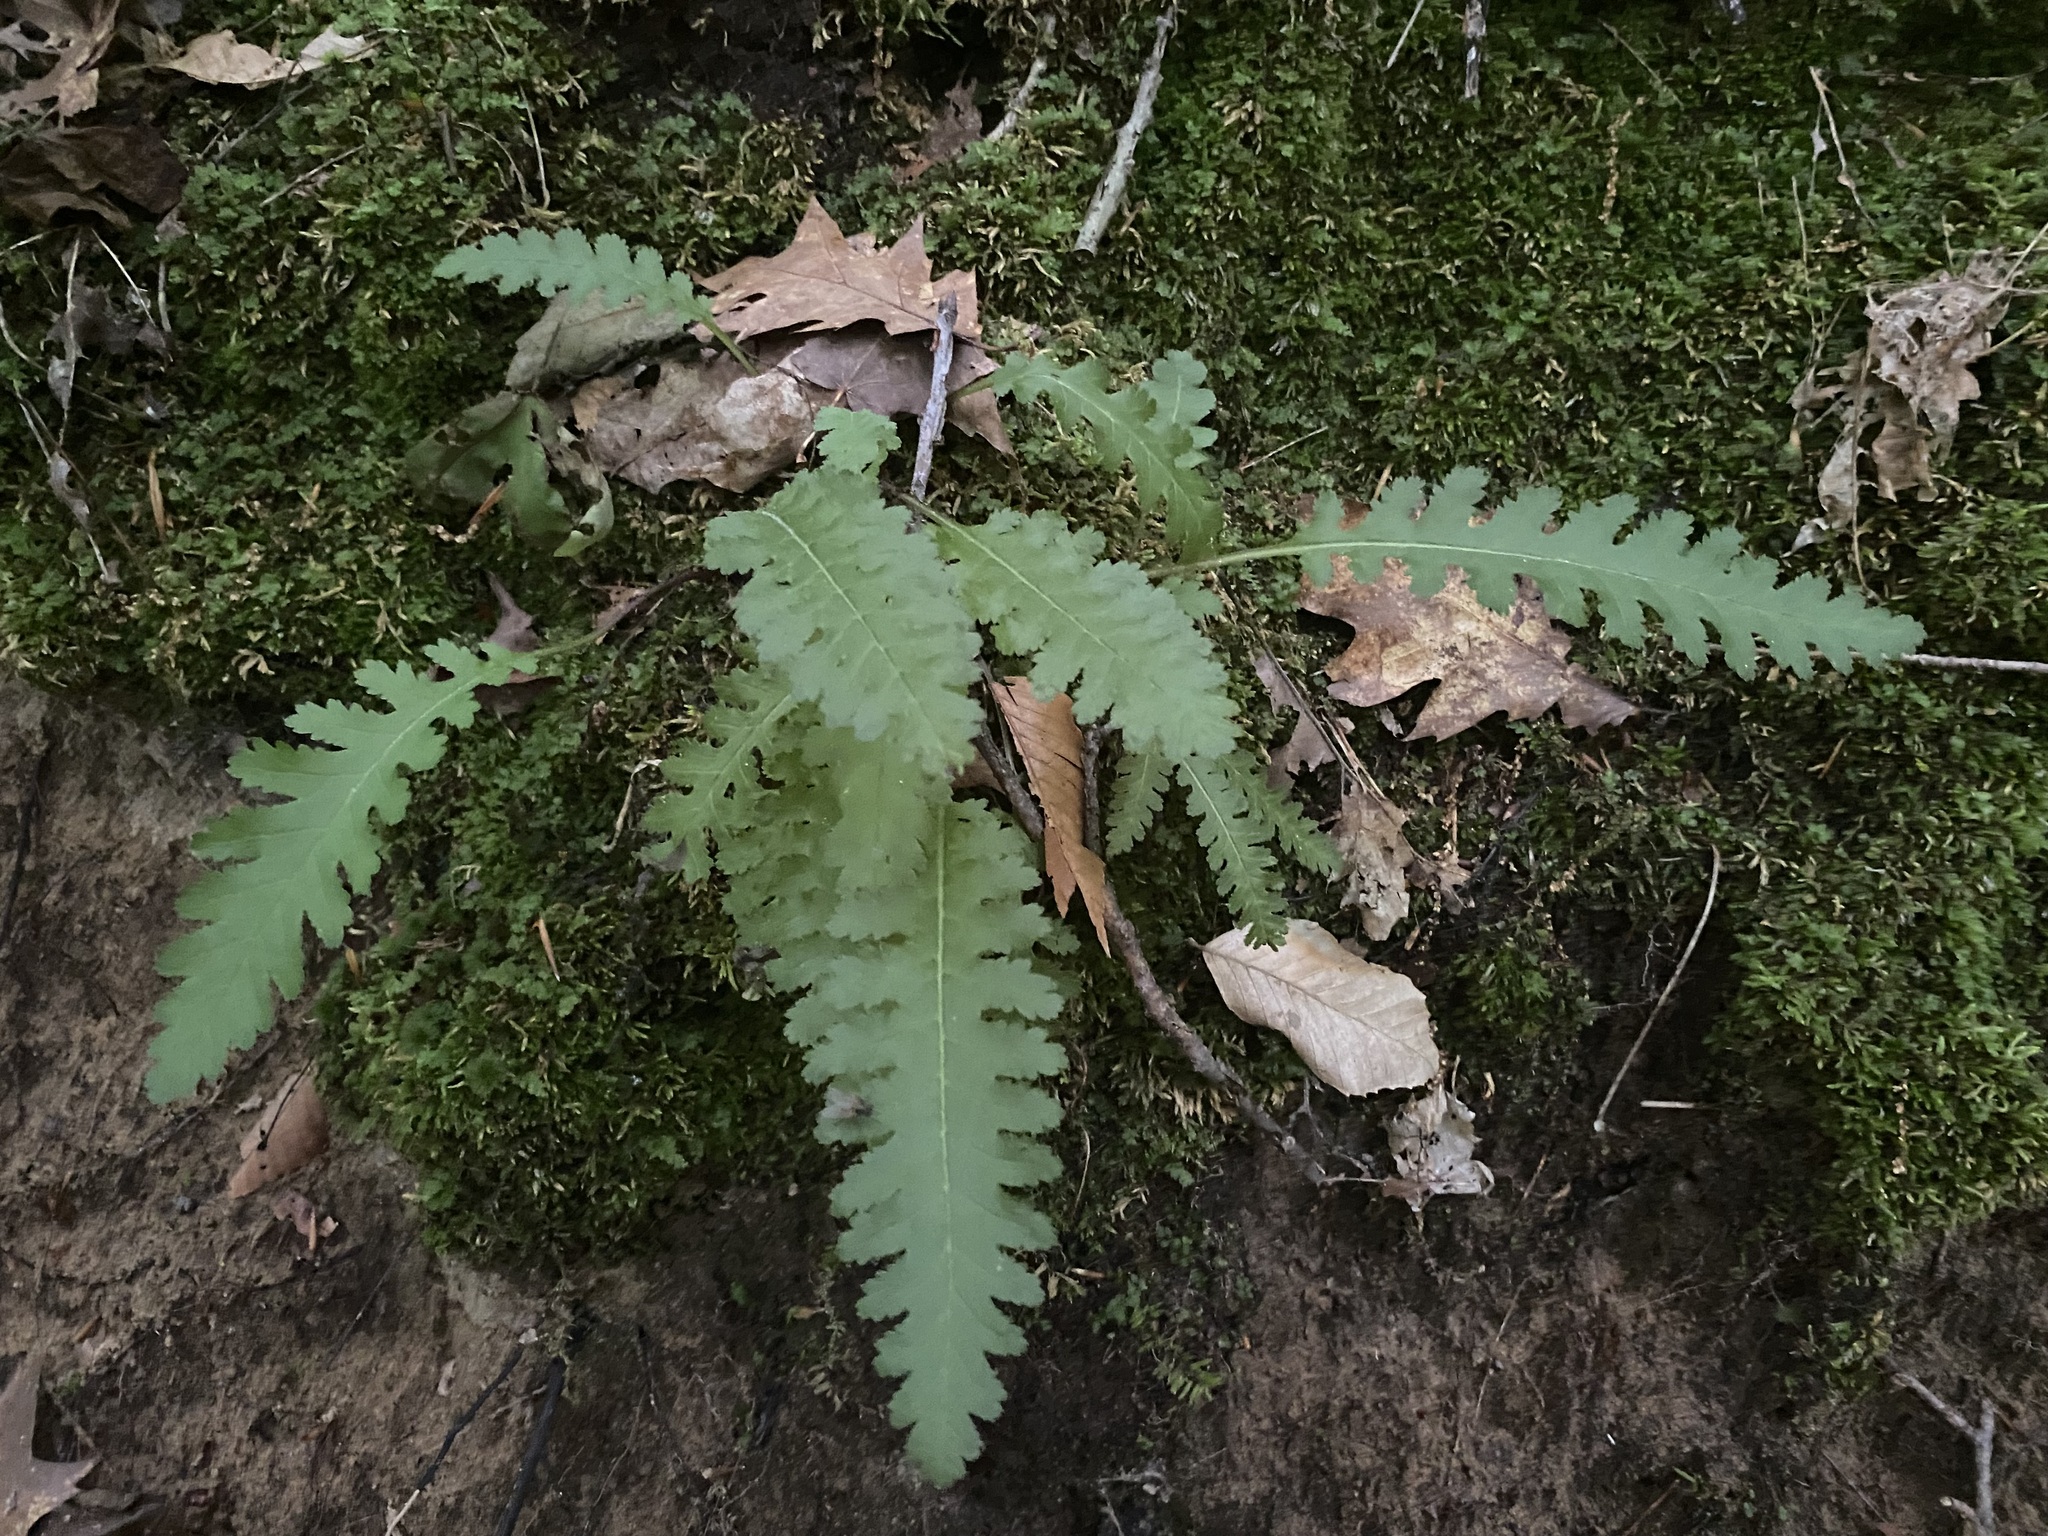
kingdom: Plantae
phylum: Tracheophyta
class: Magnoliopsida
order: Lamiales
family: Orobanchaceae
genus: Pedicularis
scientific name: Pedicularis canadensis
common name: Early lousewort
